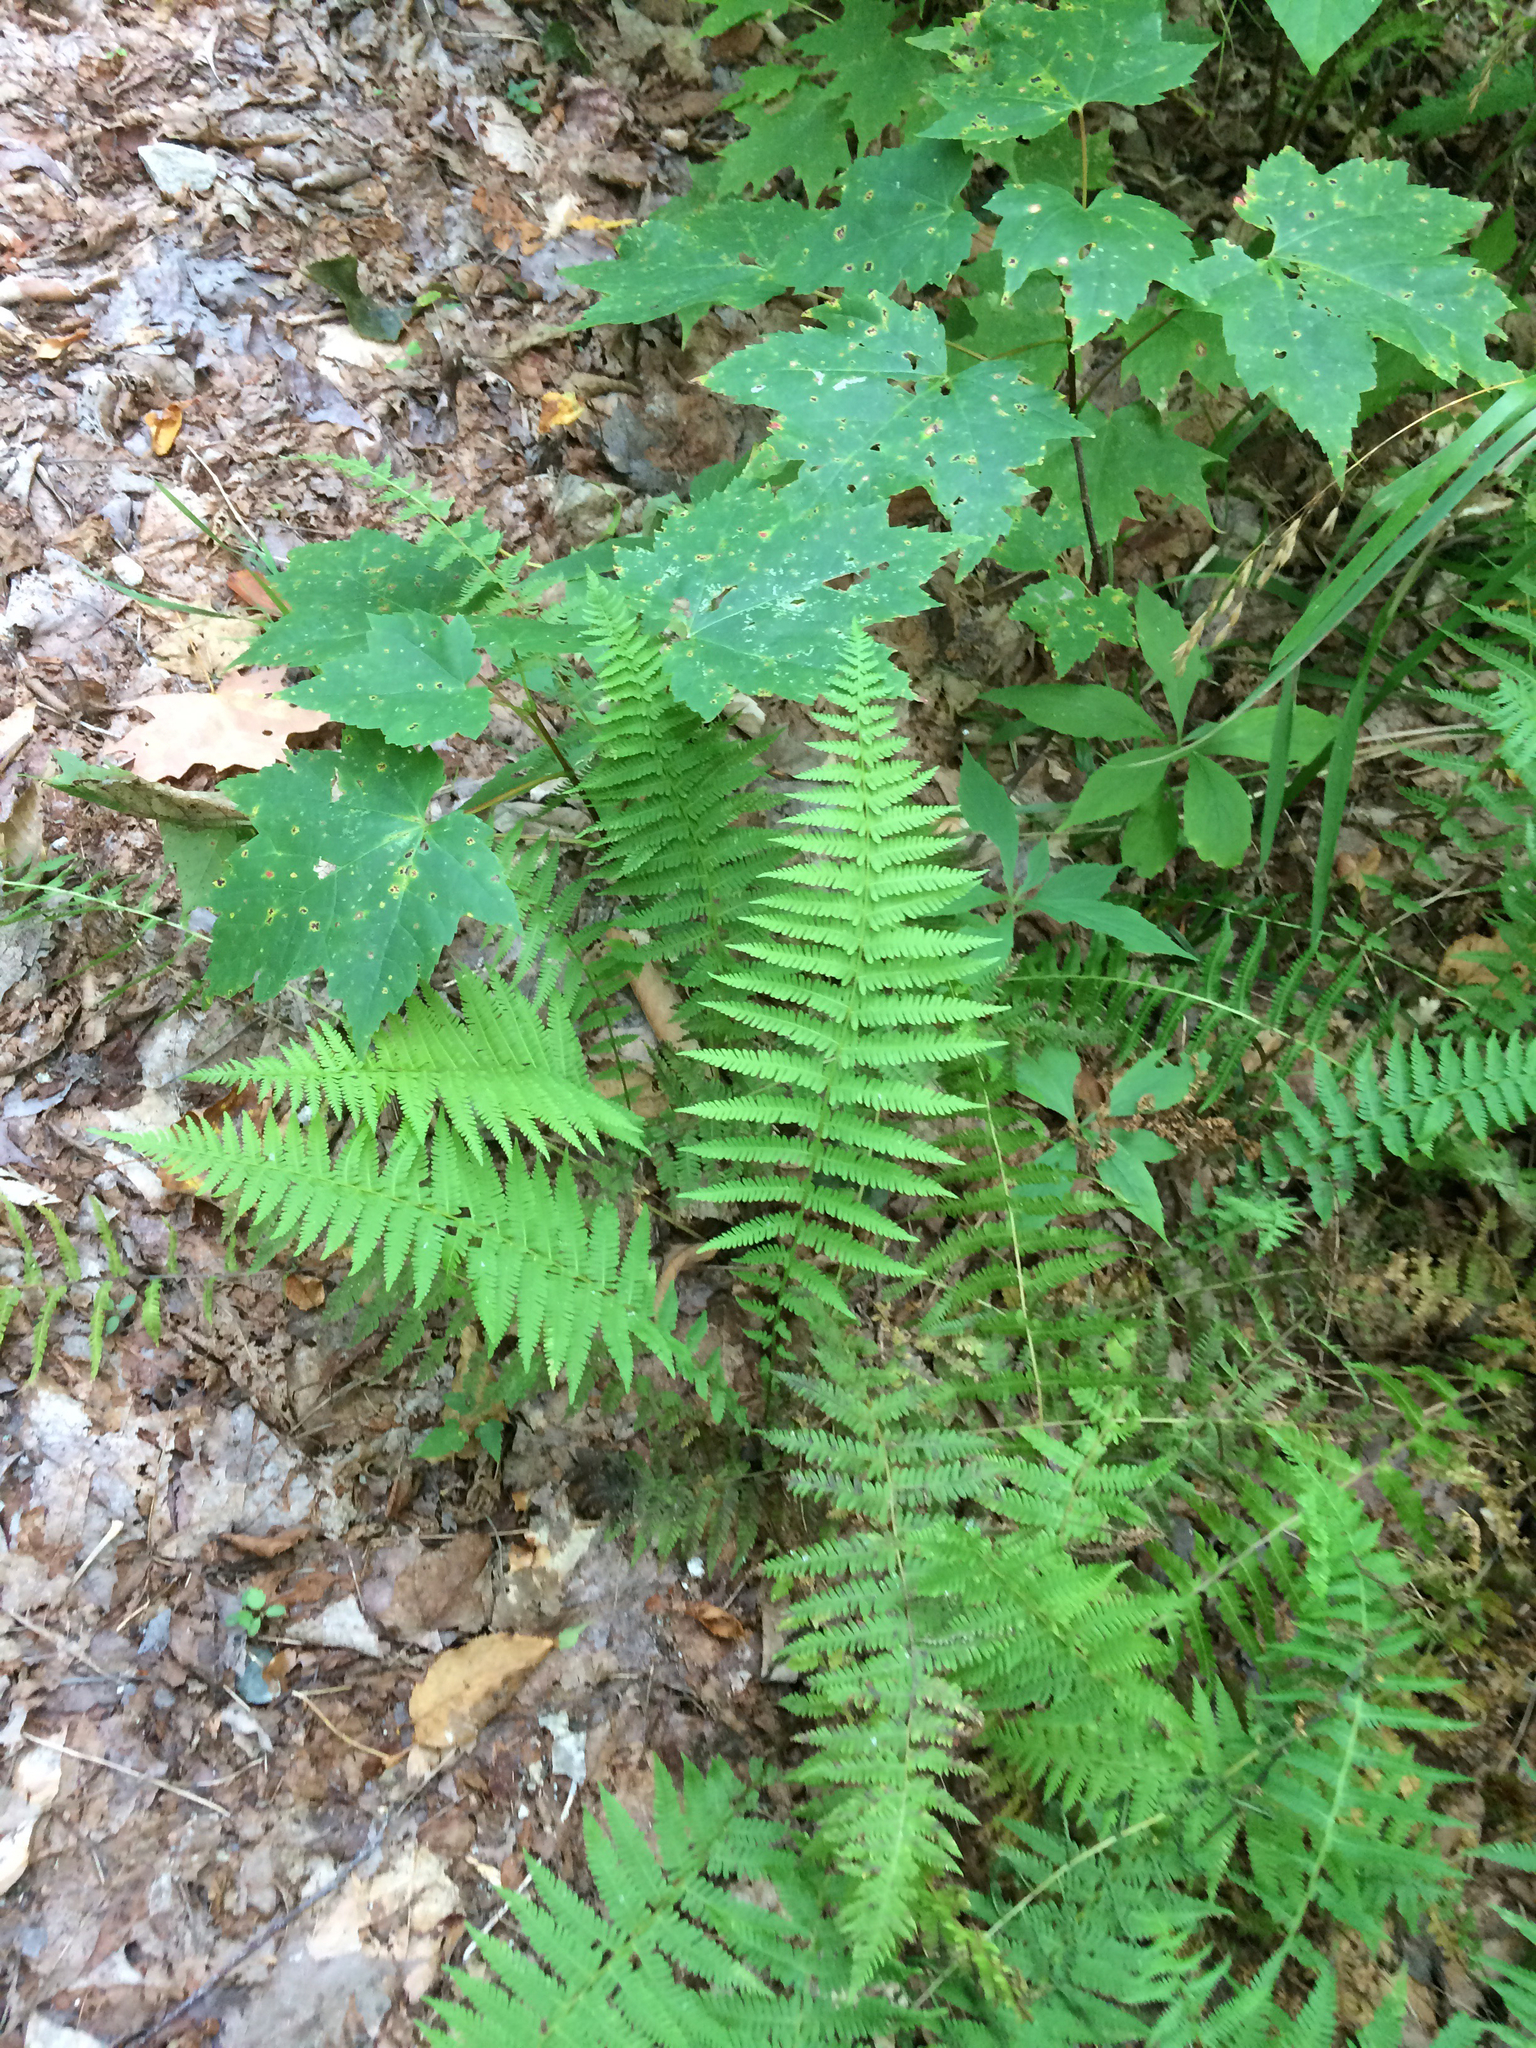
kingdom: Plantae
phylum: Tracheophyta
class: Polypodiopsida
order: Polypodiales
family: Thelypteridaceae
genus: Amauropelta
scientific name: Amauropelta noveboracensis
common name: New york fern
